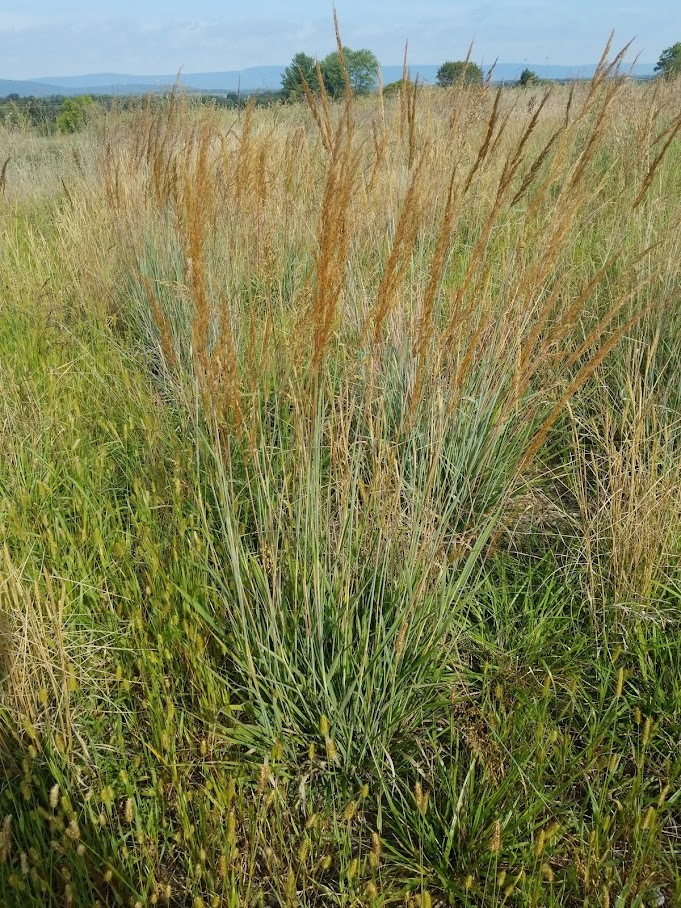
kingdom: Plantae
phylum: Tracheophyta
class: Liliopsida
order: Poales
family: Poaceae
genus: Sorghastrum
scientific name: Sorghastrum nutans
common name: Indian grass
